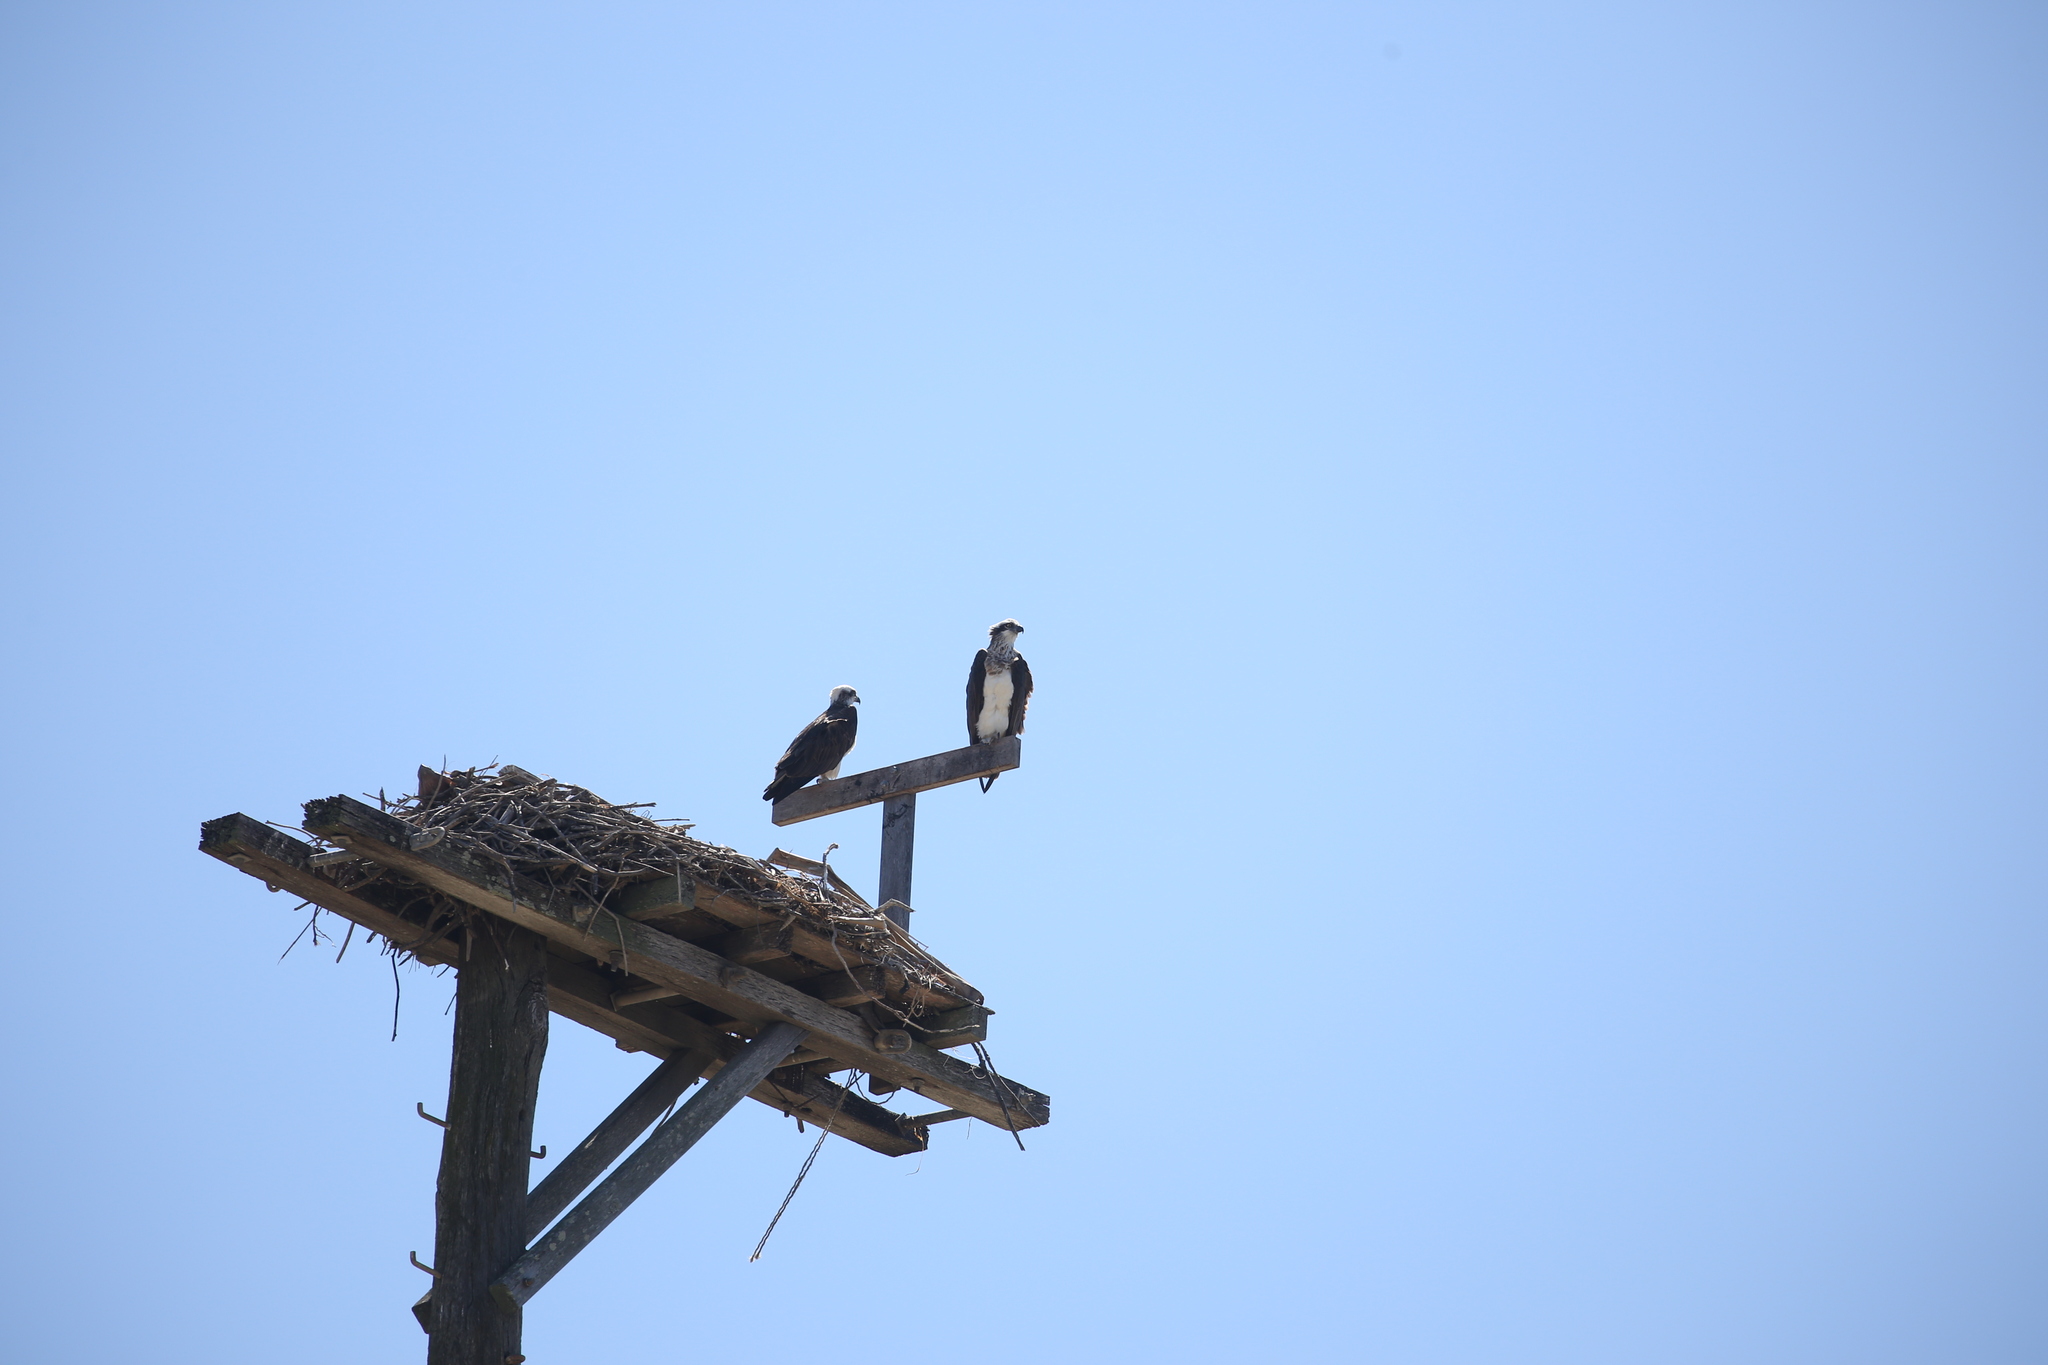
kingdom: Animalia
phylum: Chordata
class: Aves
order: Accipitriformes
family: Pandionidae
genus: Pandion
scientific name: Pandion haliaetus
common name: Osprey
